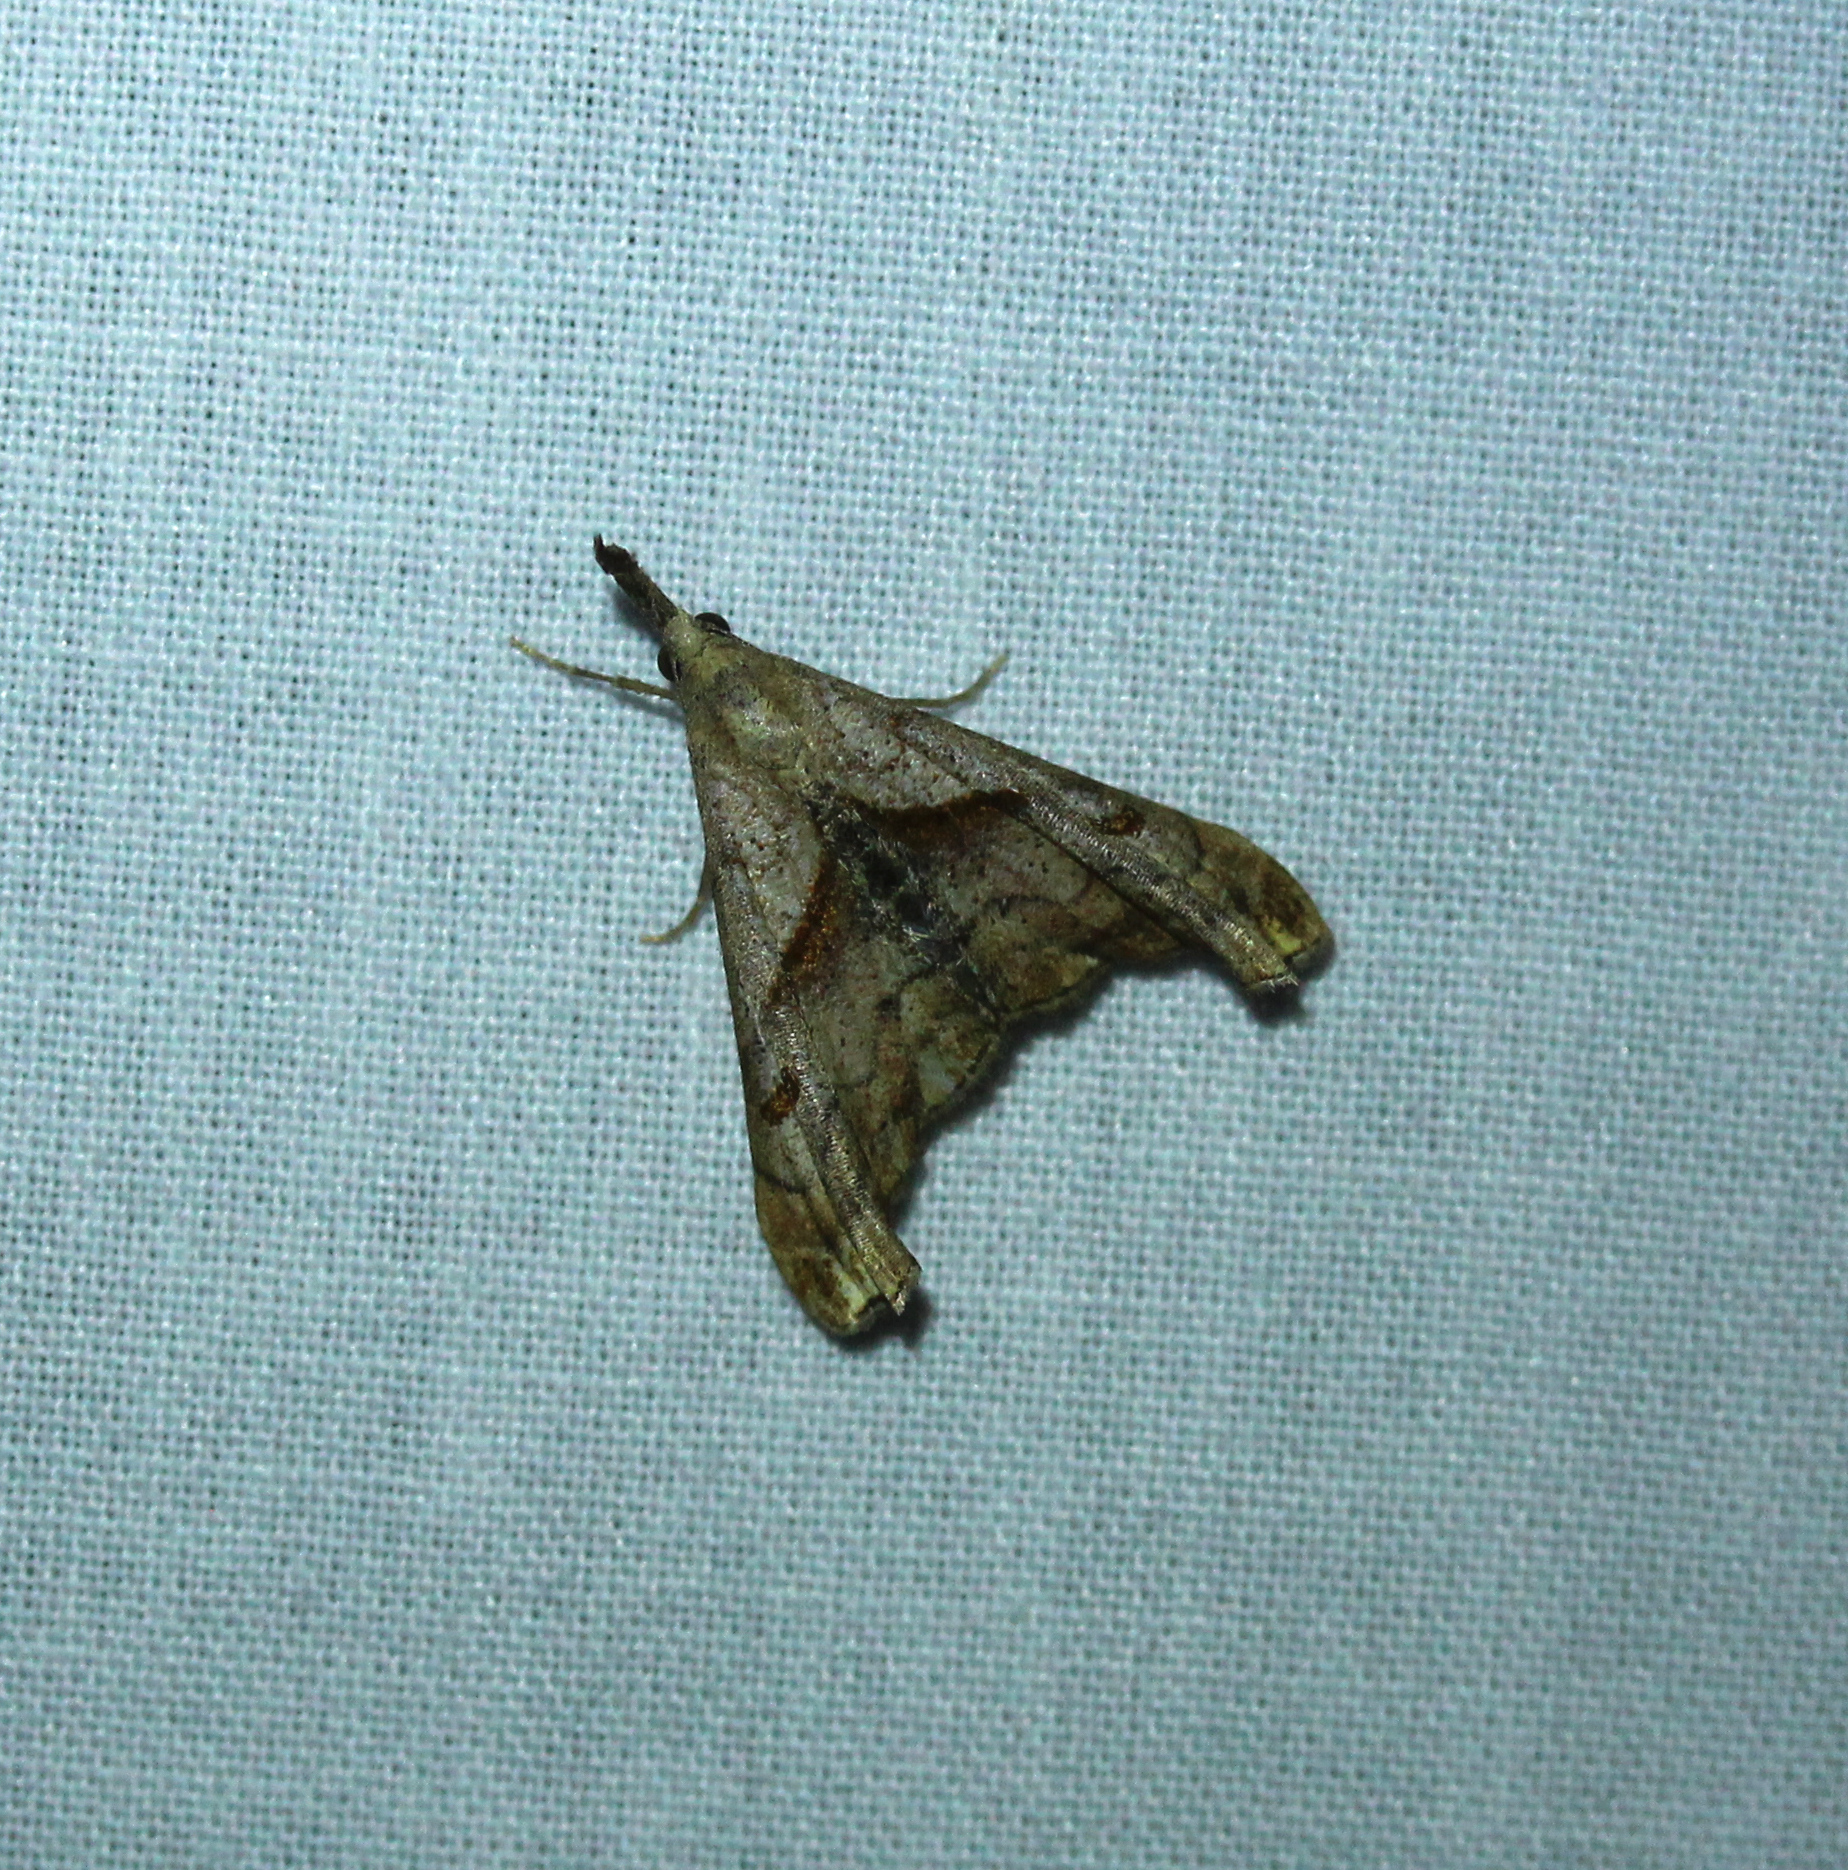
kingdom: Animalia
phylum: Arthropoda
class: Insecta
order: Lepidoptera
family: Erebidae
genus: Palthis
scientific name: Palthis angulalis
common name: Dark-spotted palthis moth
